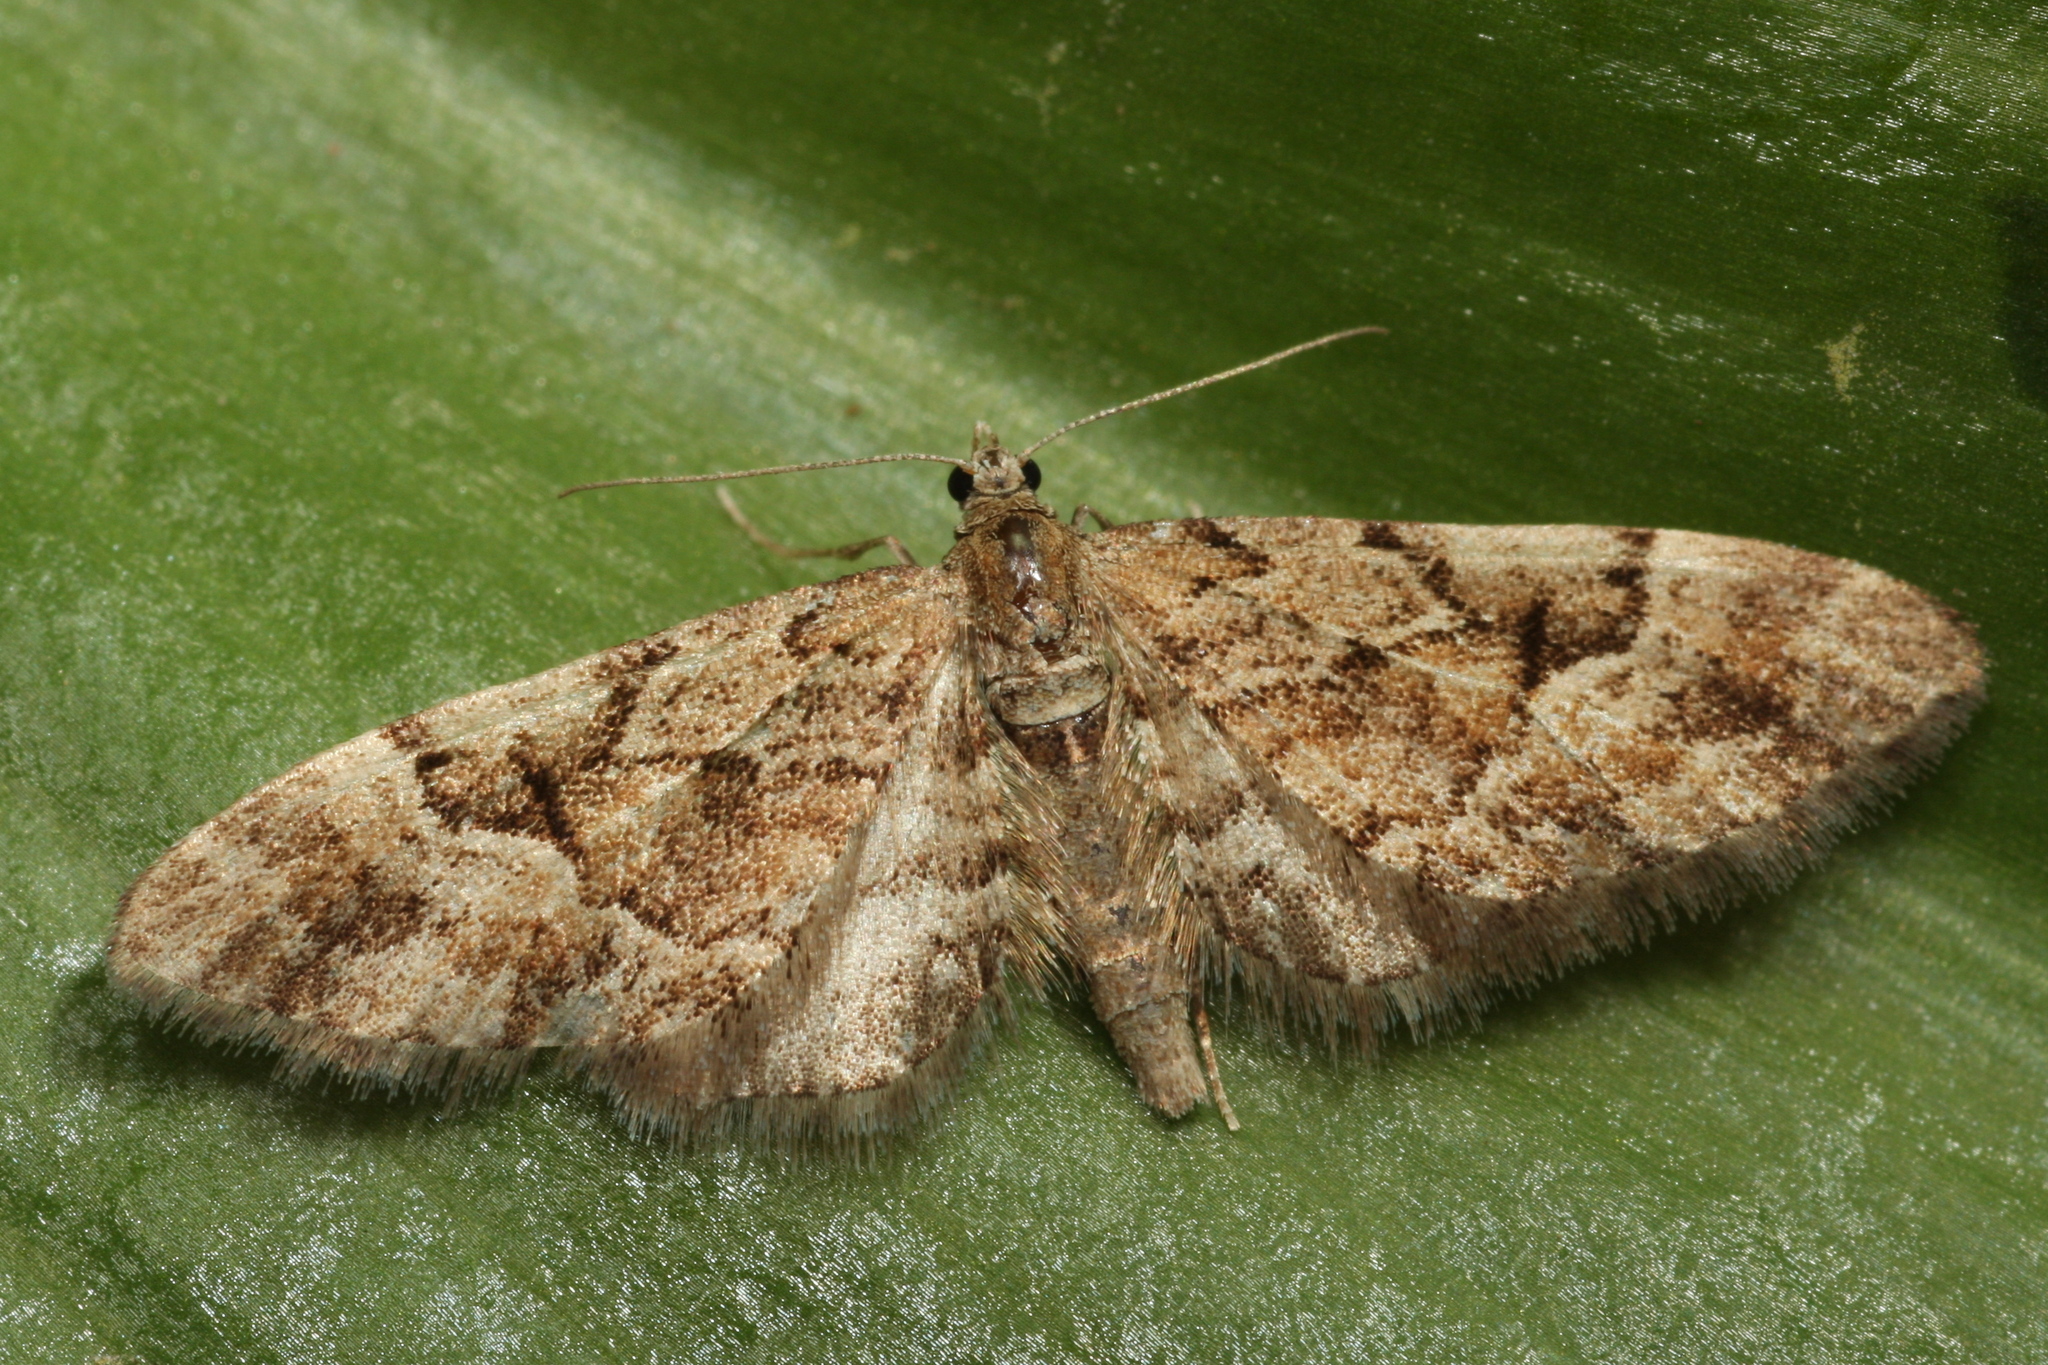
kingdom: Animalia
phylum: Arthropoda
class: Insecta
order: Lepidoptera
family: Geometridae
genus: Eupithecia
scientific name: Eupithecia lanceata
